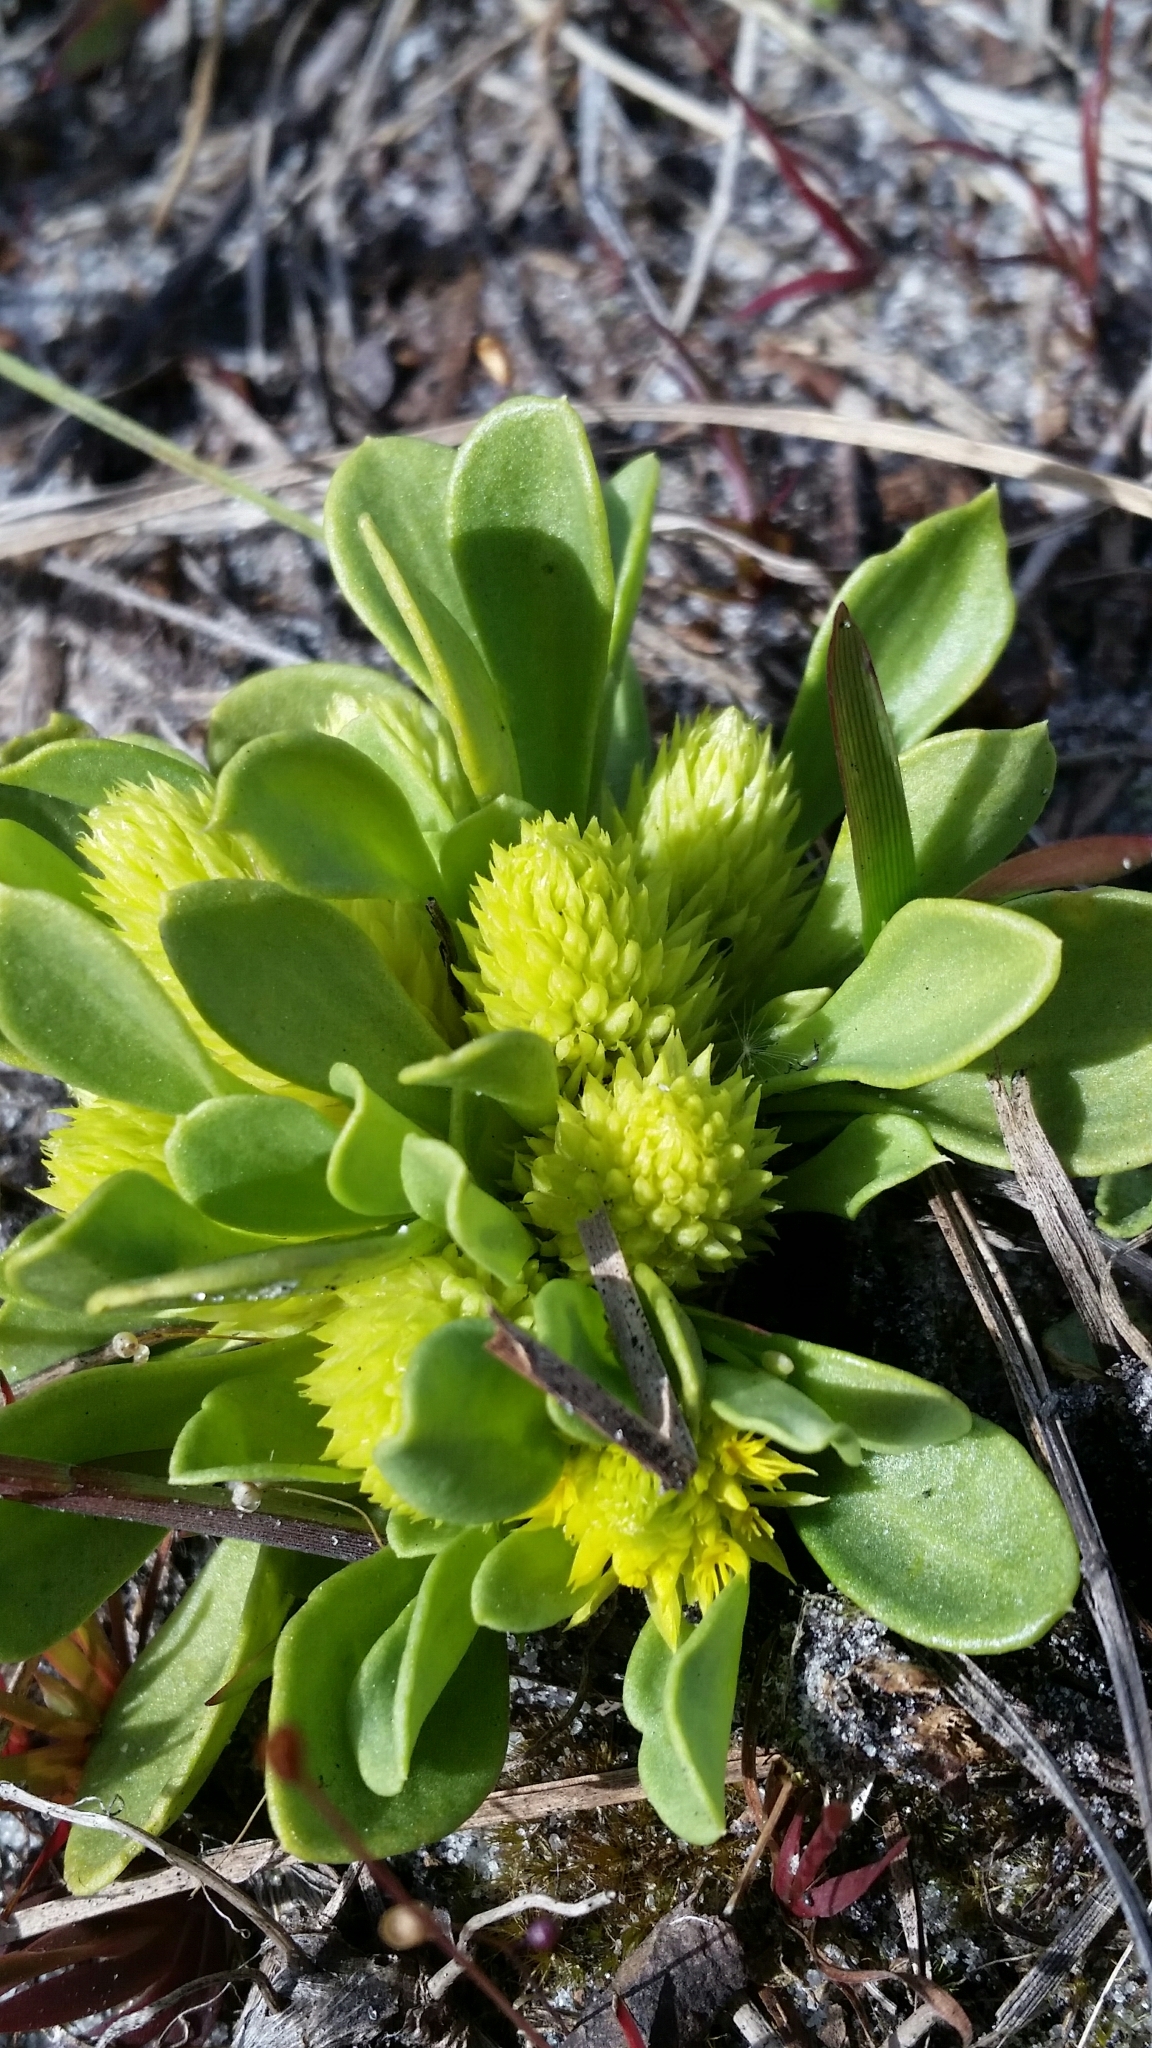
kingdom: Plantae
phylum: Tracheophyta
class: Magnoliopsida
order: Fabales
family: Polygalaceae
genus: Polygala
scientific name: Polygala nana
